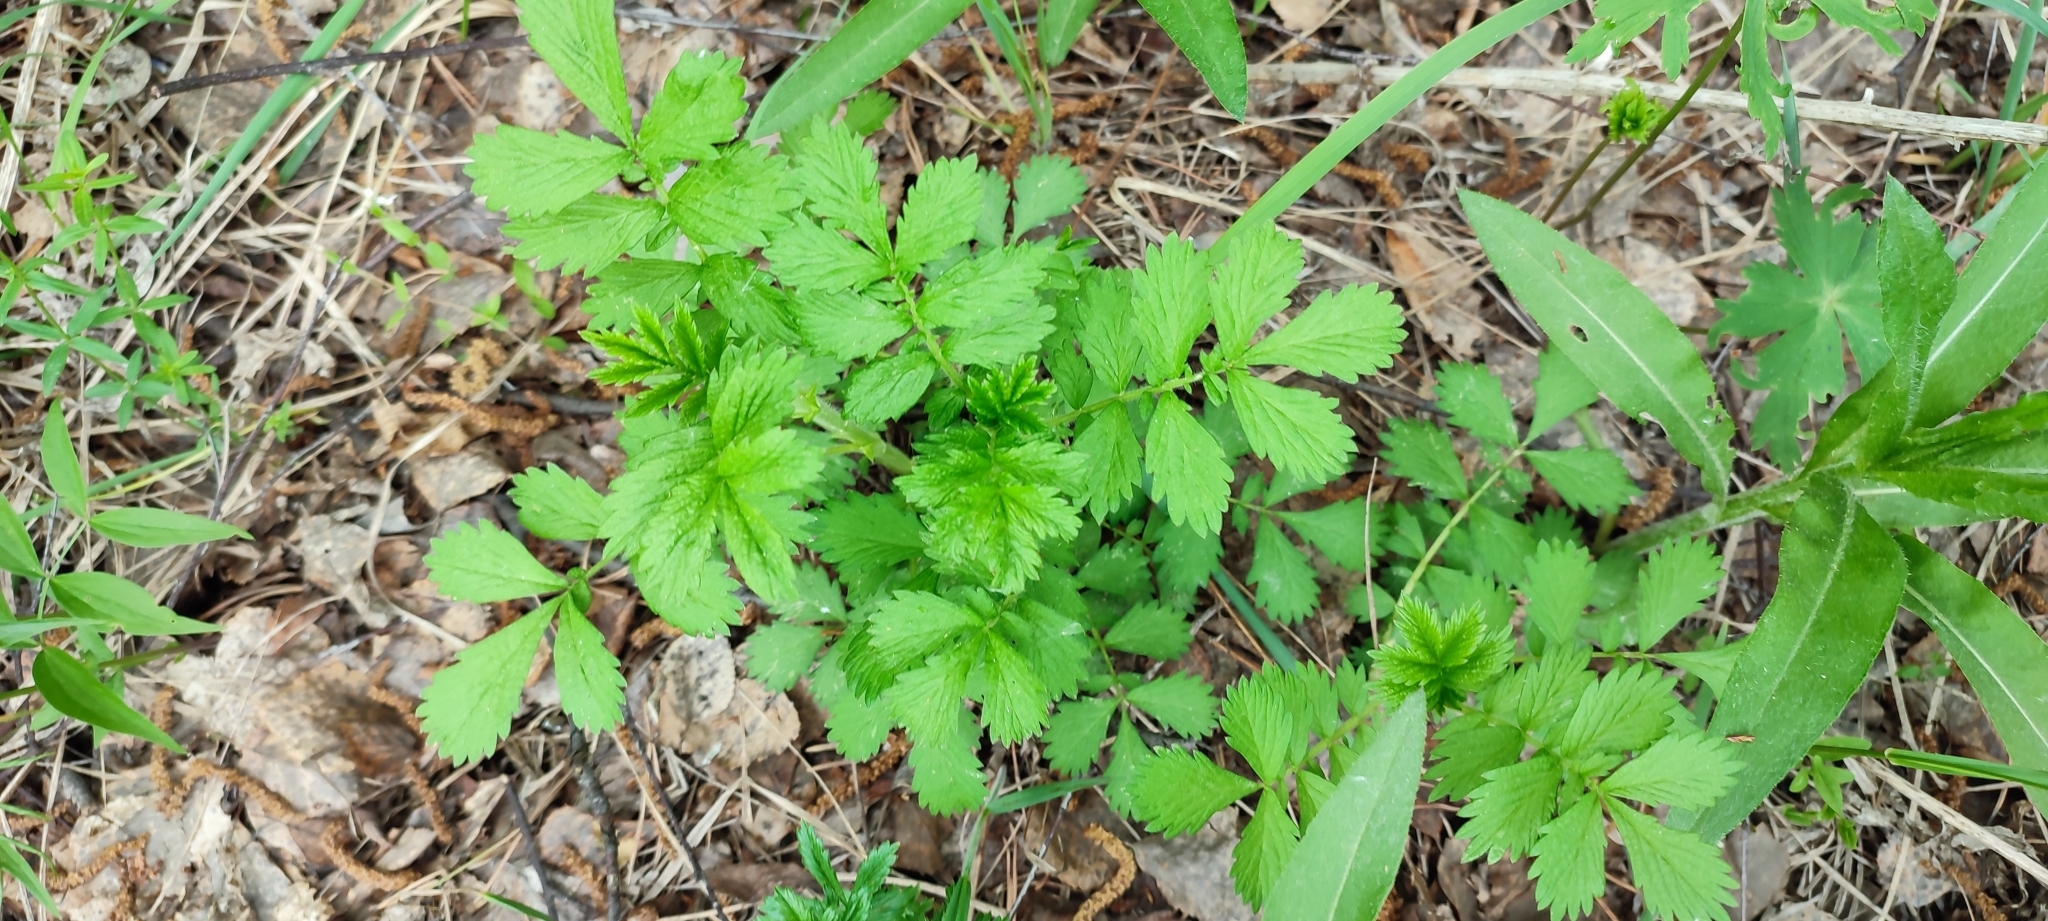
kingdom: Plantae
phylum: Tracheophyta
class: Magnoliopsida
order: Rosales
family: Rosaceae
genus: Agrimonia
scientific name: Agrimonia pilosa
